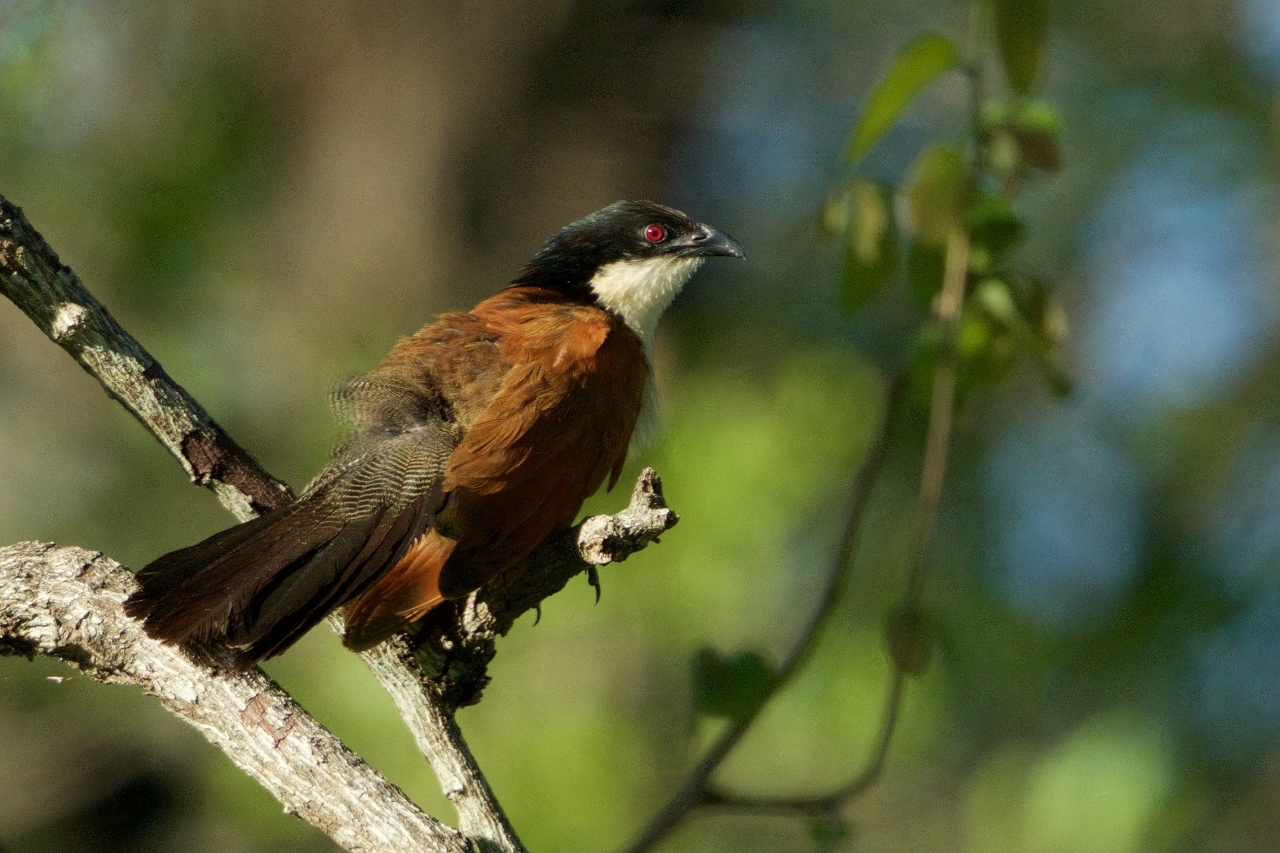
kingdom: Animalia
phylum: Chordata
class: Aves
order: Cuculiformes
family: Cuculidae
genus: Centropus
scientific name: Centropus superciliosus
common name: White-browed coucal
